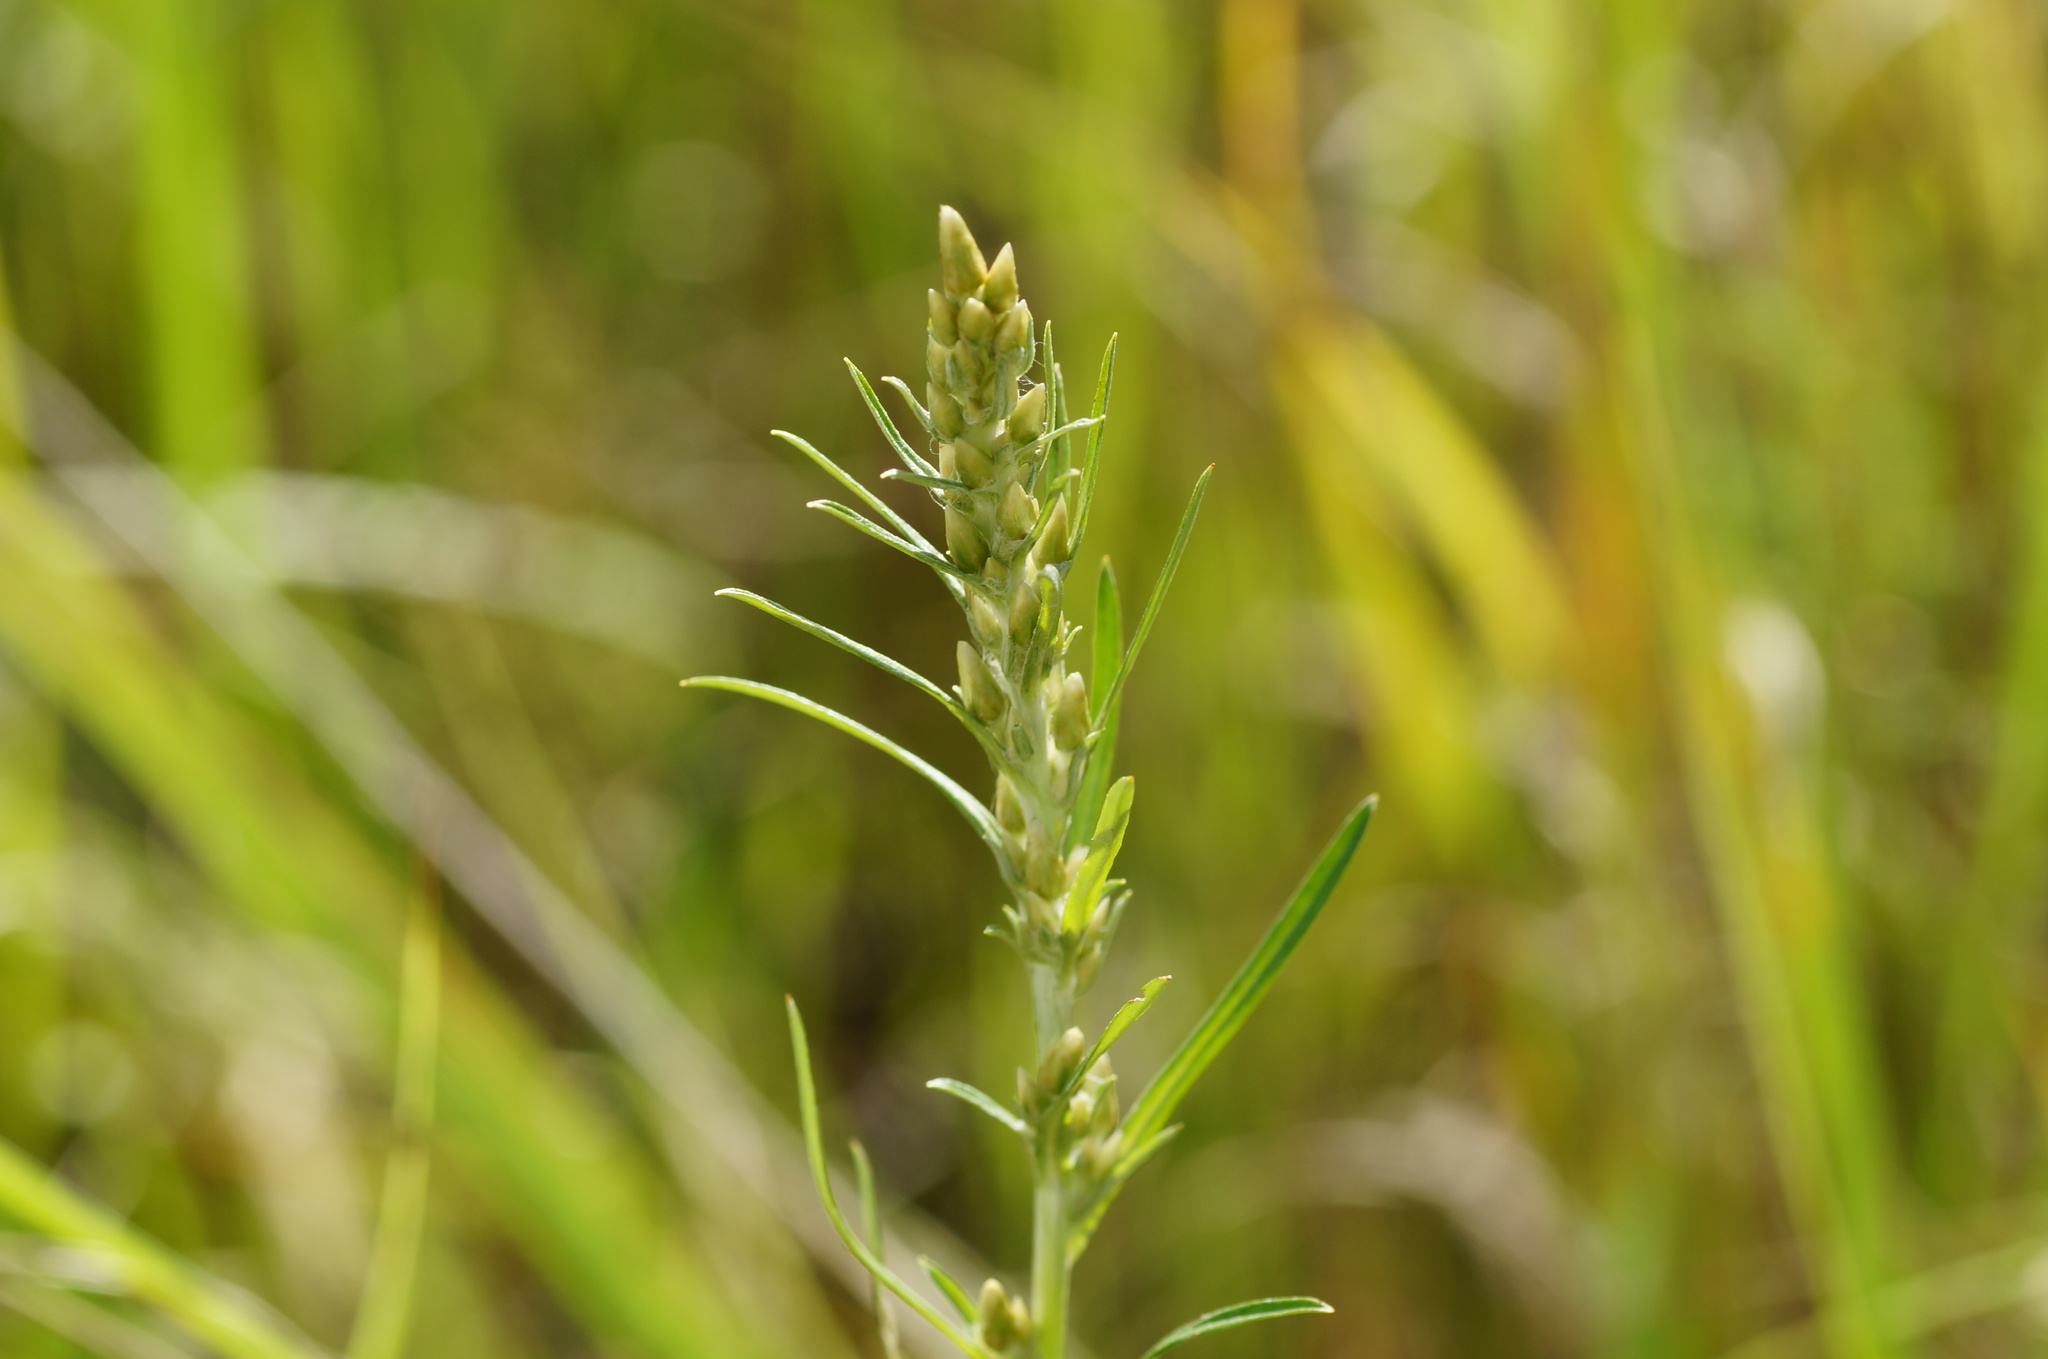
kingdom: Plantae
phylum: Tracheophyta
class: Magnoliopsida
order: Asterales
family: Asteraceae
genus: Omalotheca
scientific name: Omalotheca sylvatica
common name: Heath cudweed
